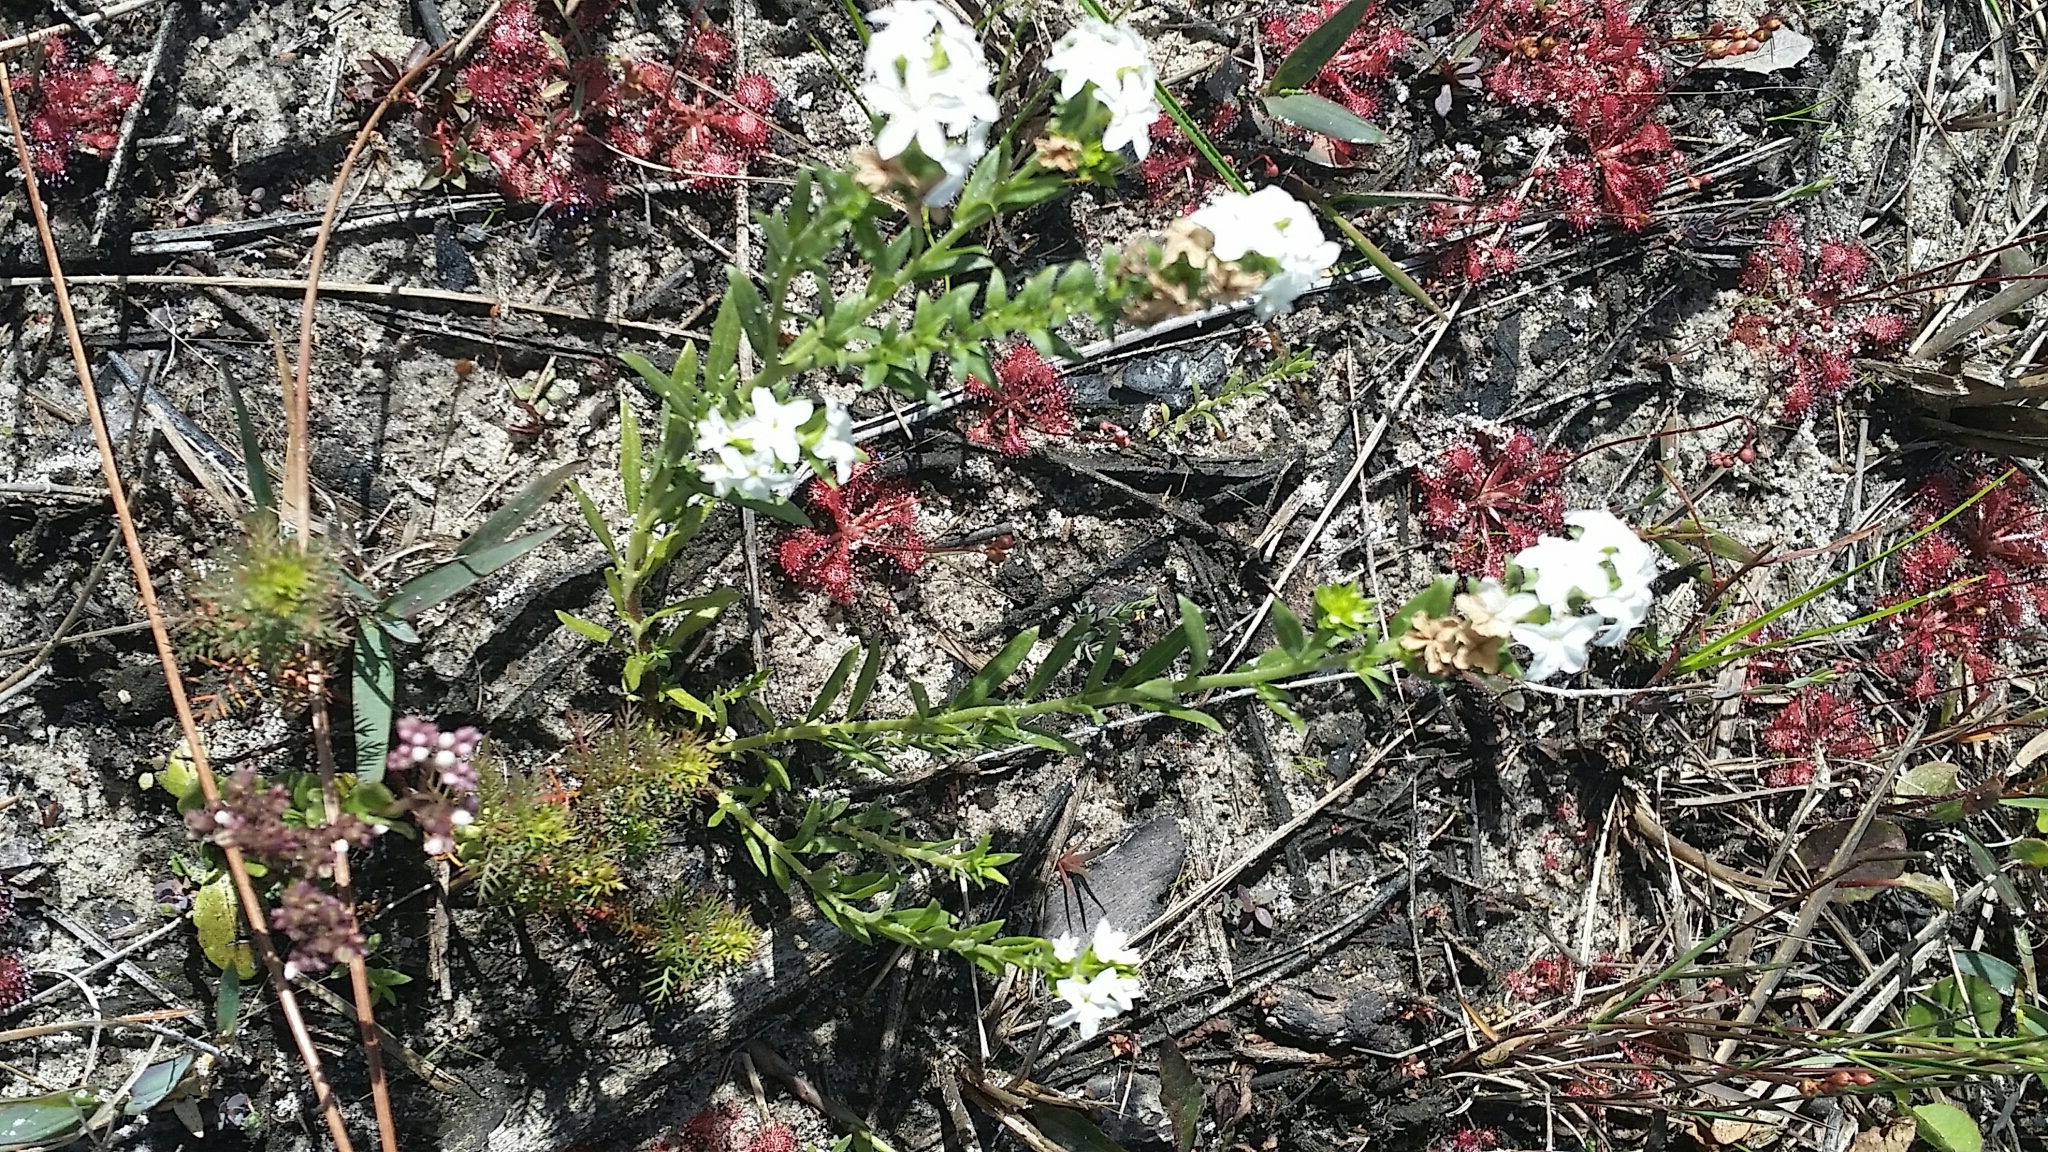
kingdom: Plantae
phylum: Tracheophyta
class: Magnoliopsida
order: Boraginales
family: Heliotropiaceae
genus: Euploca
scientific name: Euploca polyphylla
